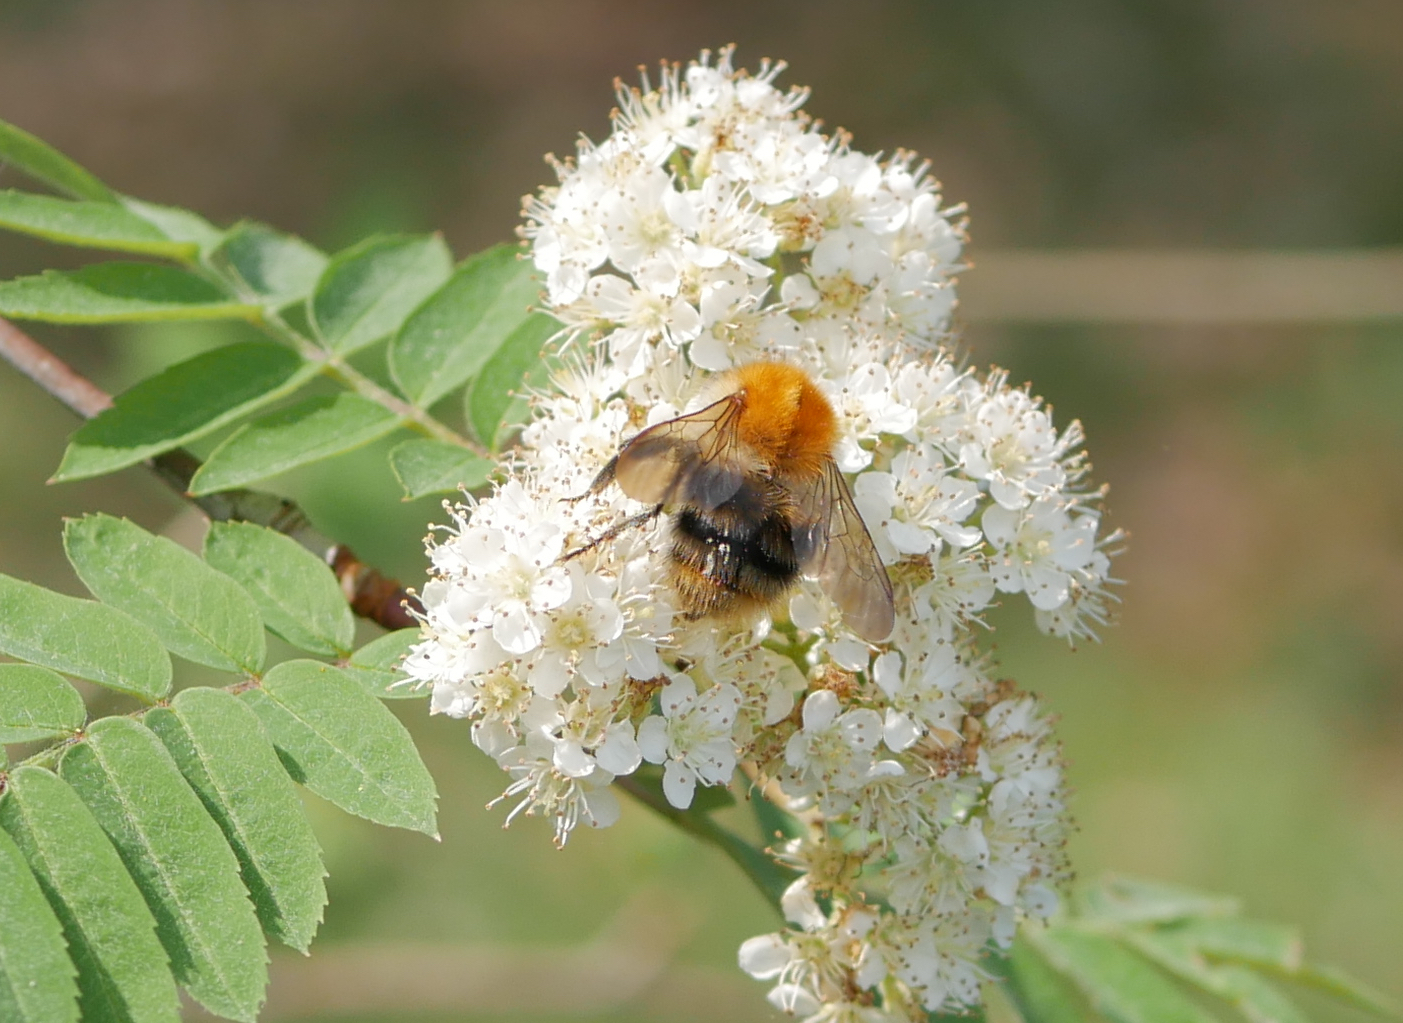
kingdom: Animalia
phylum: Arthropoda
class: Insecta
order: Hymenoptera
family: Apidae
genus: Bombus
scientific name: Bombus pascuorum
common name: Common carder bee
